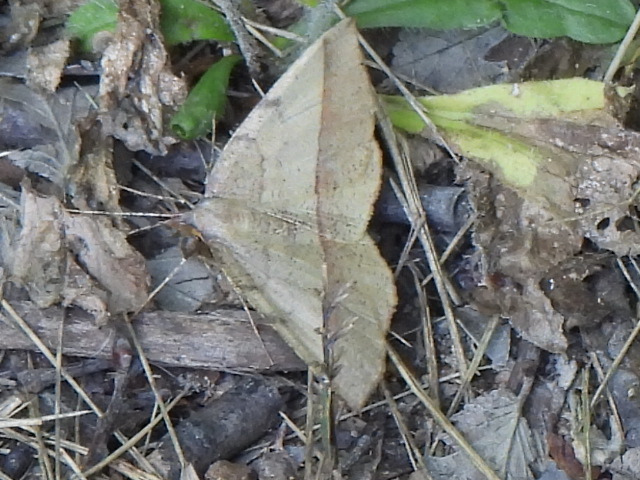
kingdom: Animalia
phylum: Arthropoda
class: Insecta
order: Lepidoptera
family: Geometridae
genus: Erastria
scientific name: Erastria cruentaria
